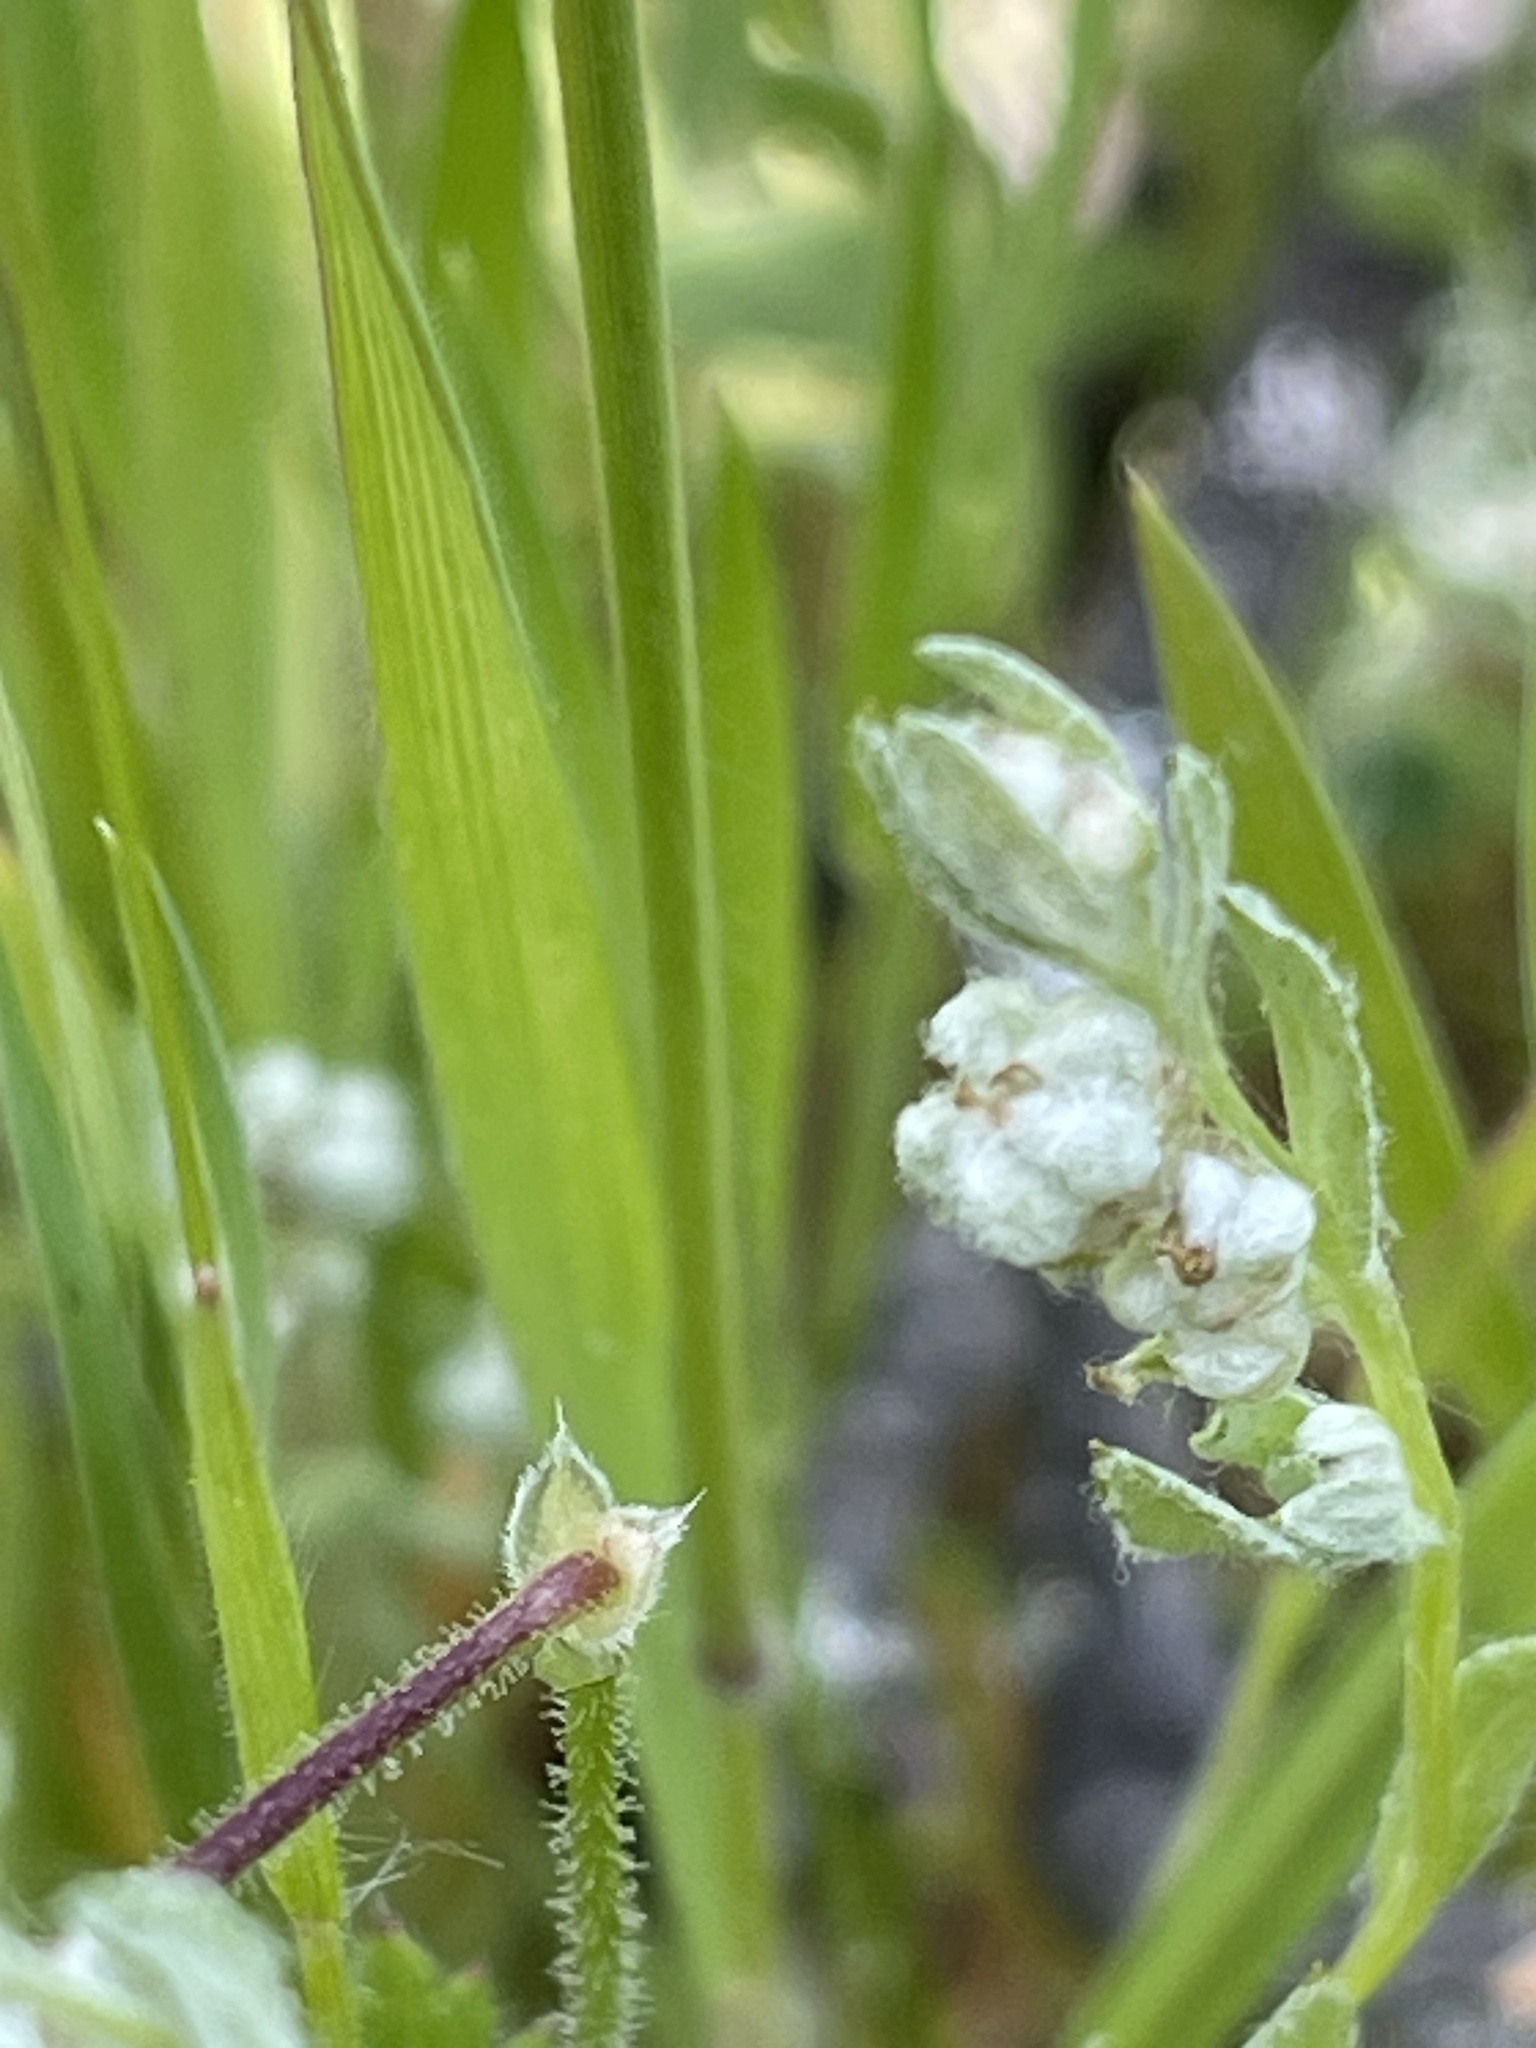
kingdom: Plantae
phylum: Tracheophyta
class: Magnoliopsida
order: Asterales
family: Asteraceae
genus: Bombycilaena
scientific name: Bombycilaena californica
